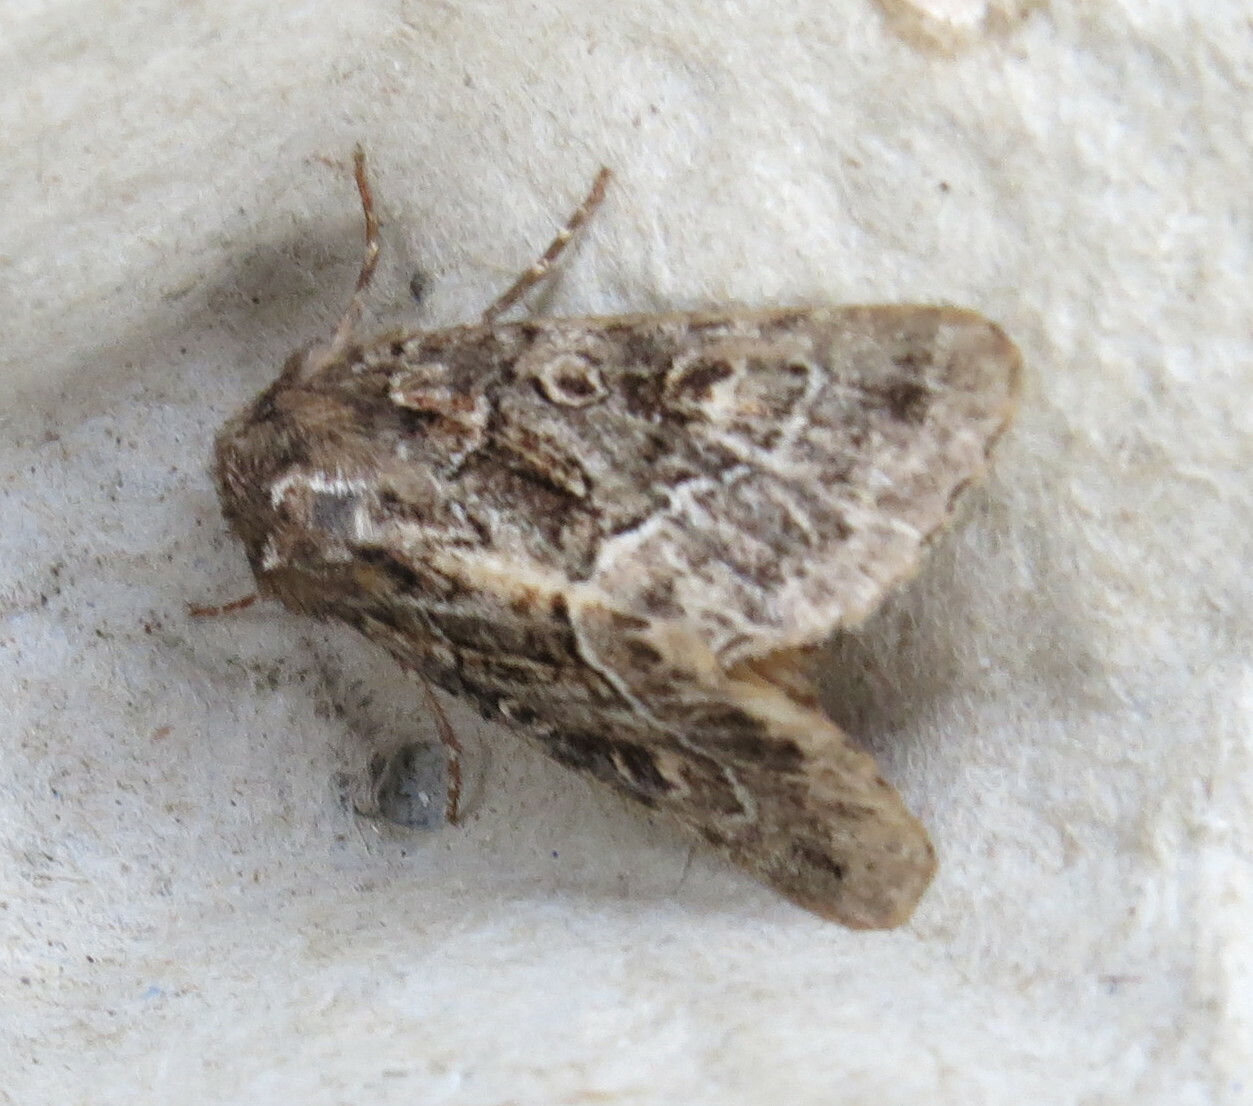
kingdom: Animalia
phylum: Arthropoda
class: Insecta
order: Lepidoptera
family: Noctuidae
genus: Thalpophila
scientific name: Thalpophila matura
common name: Straw underwing
